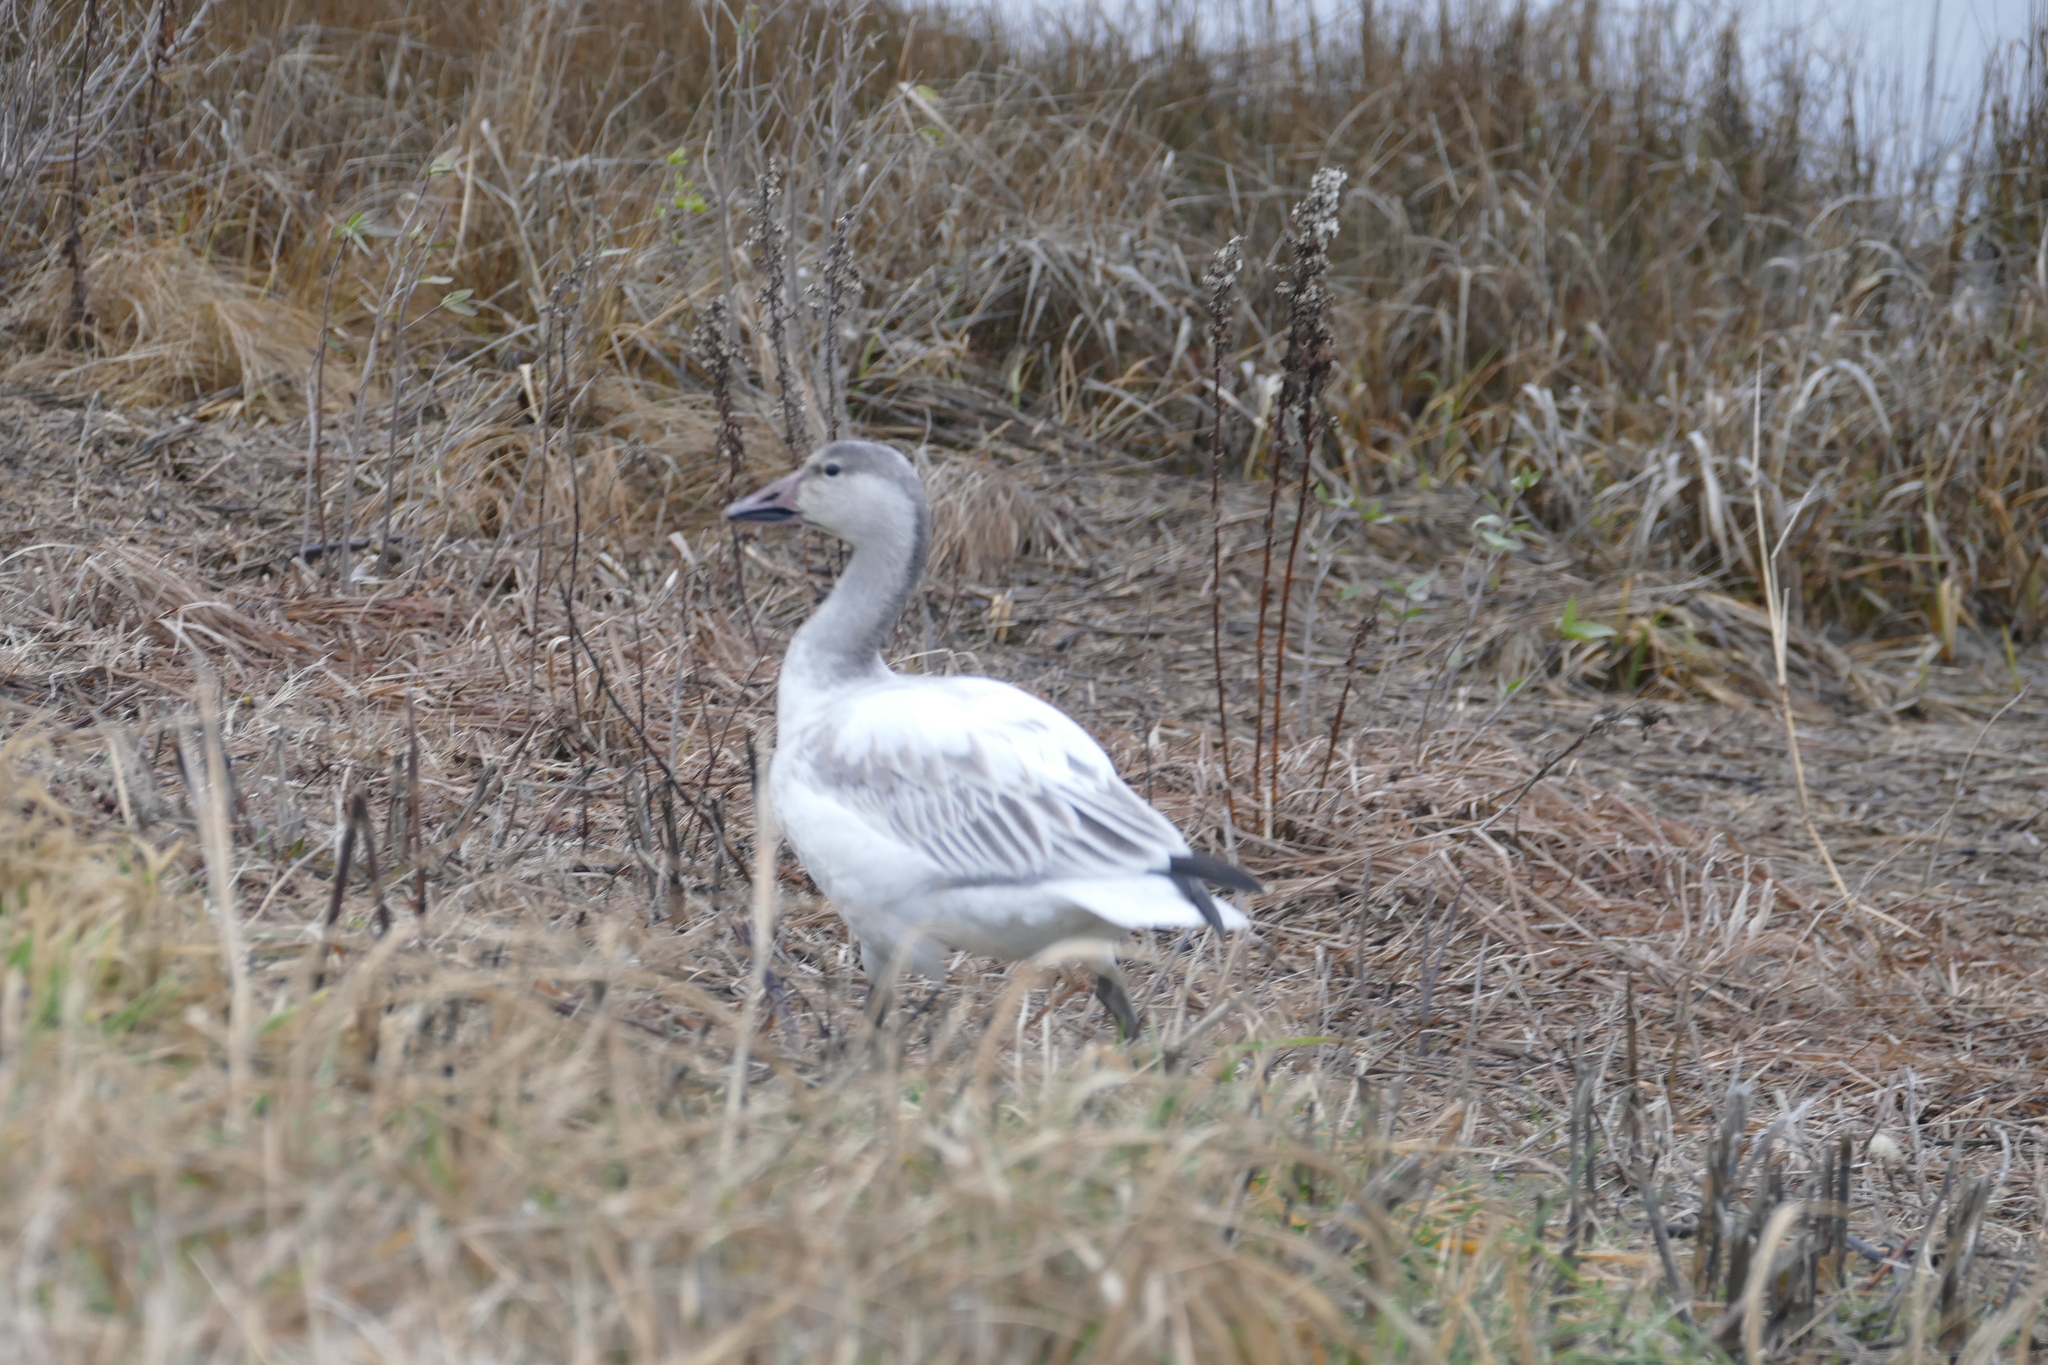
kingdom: Animalia
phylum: Chordata
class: Aves
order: Anseriformes
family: Anatidae
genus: Anser
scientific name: Anser caerulescens
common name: Snow goose
